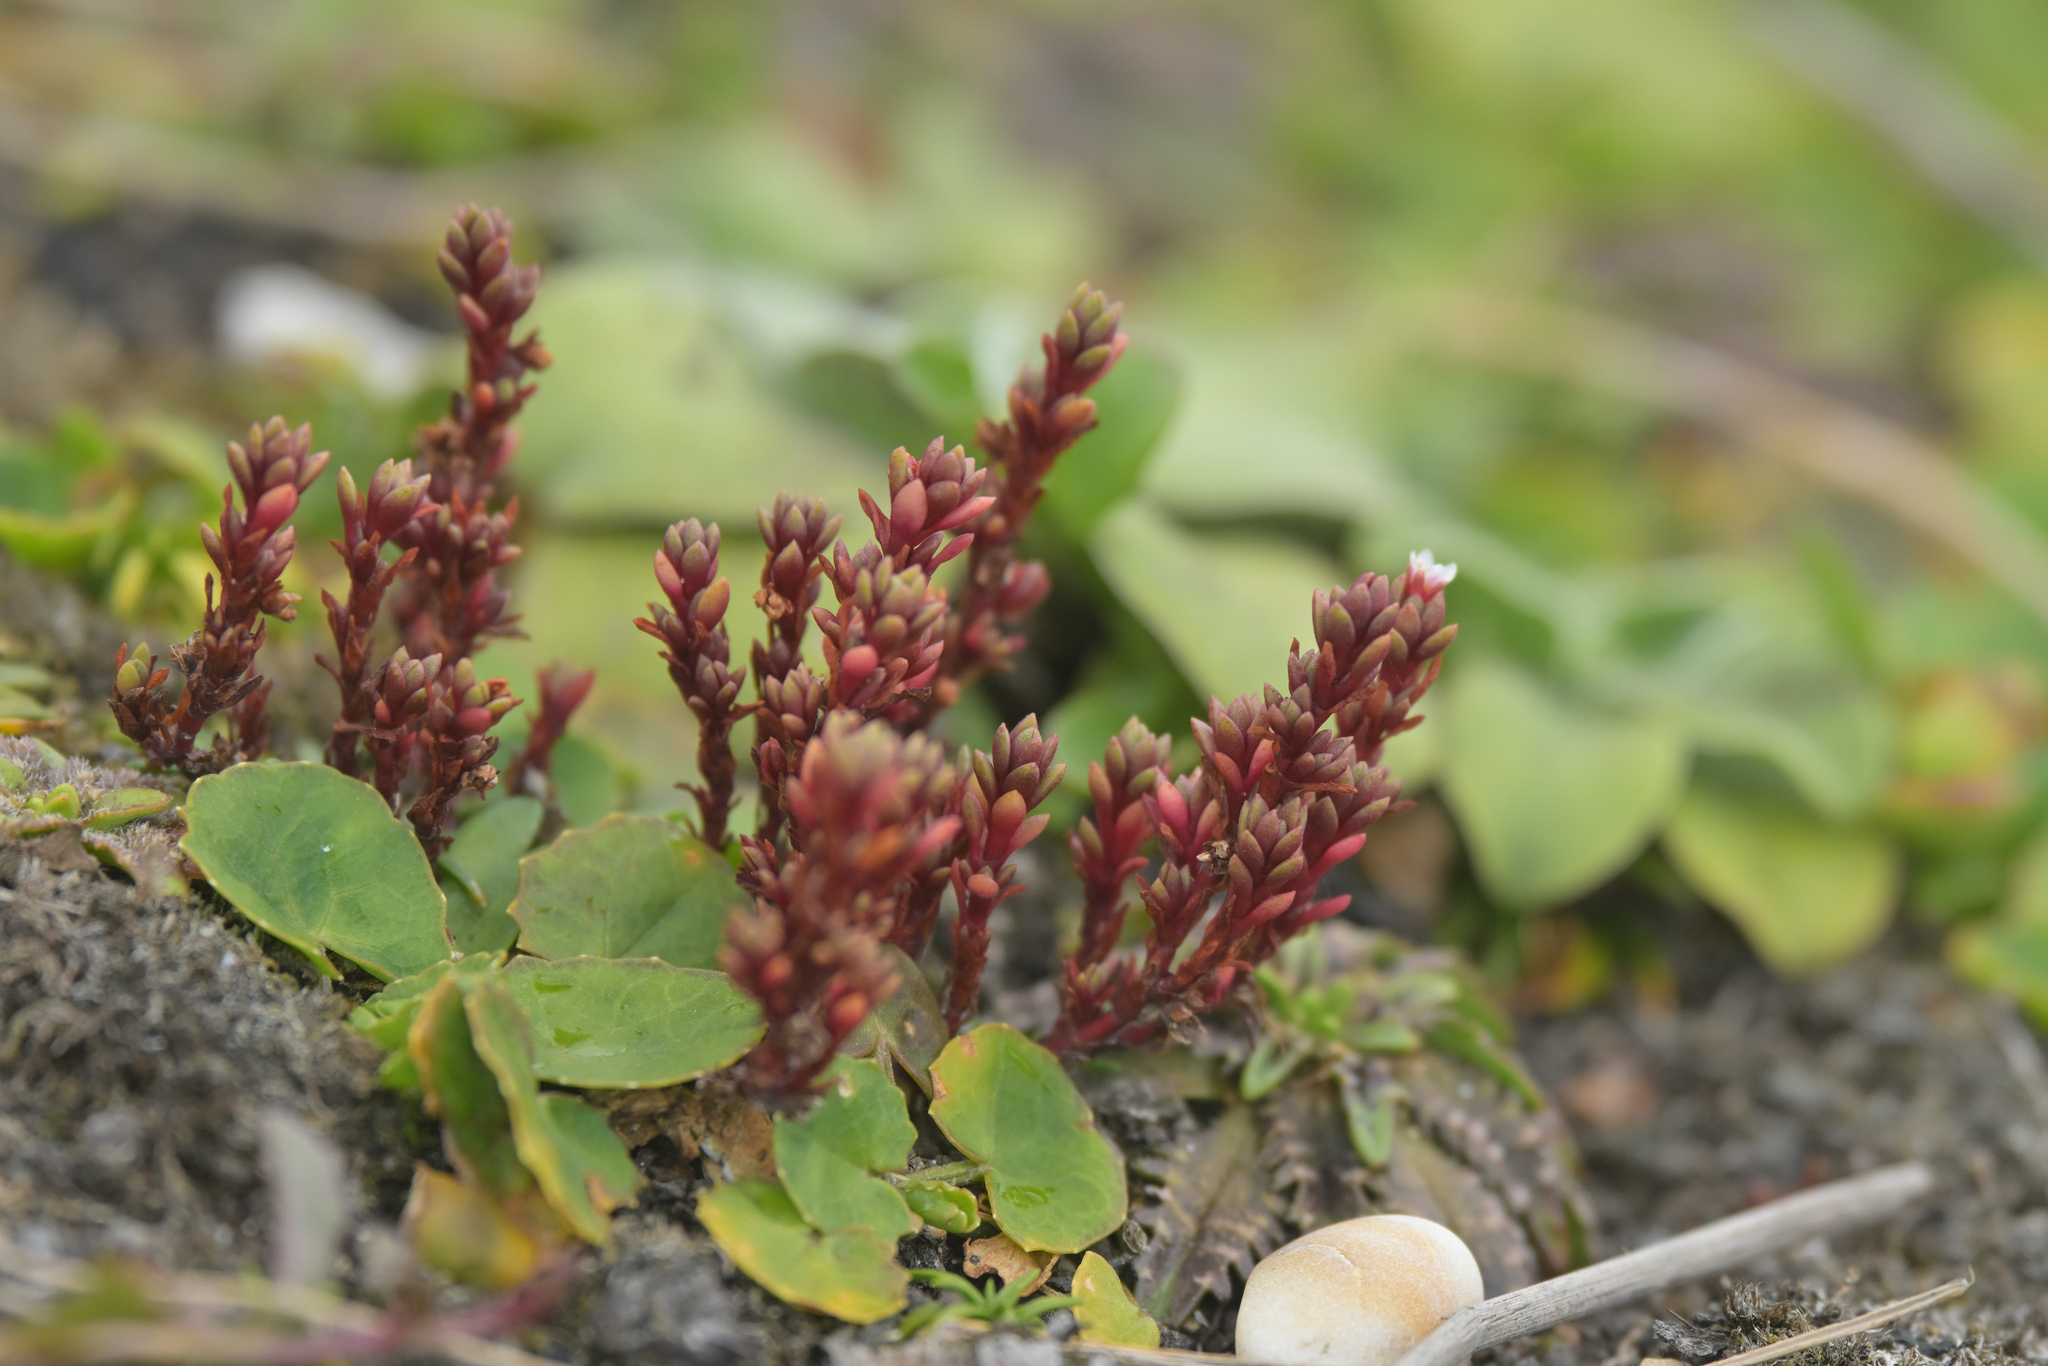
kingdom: Plantae
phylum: Tracheophyta
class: Magnoliopsida
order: Saxifragales
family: Crassulaceae
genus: Crassula
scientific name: Crassula moschata
